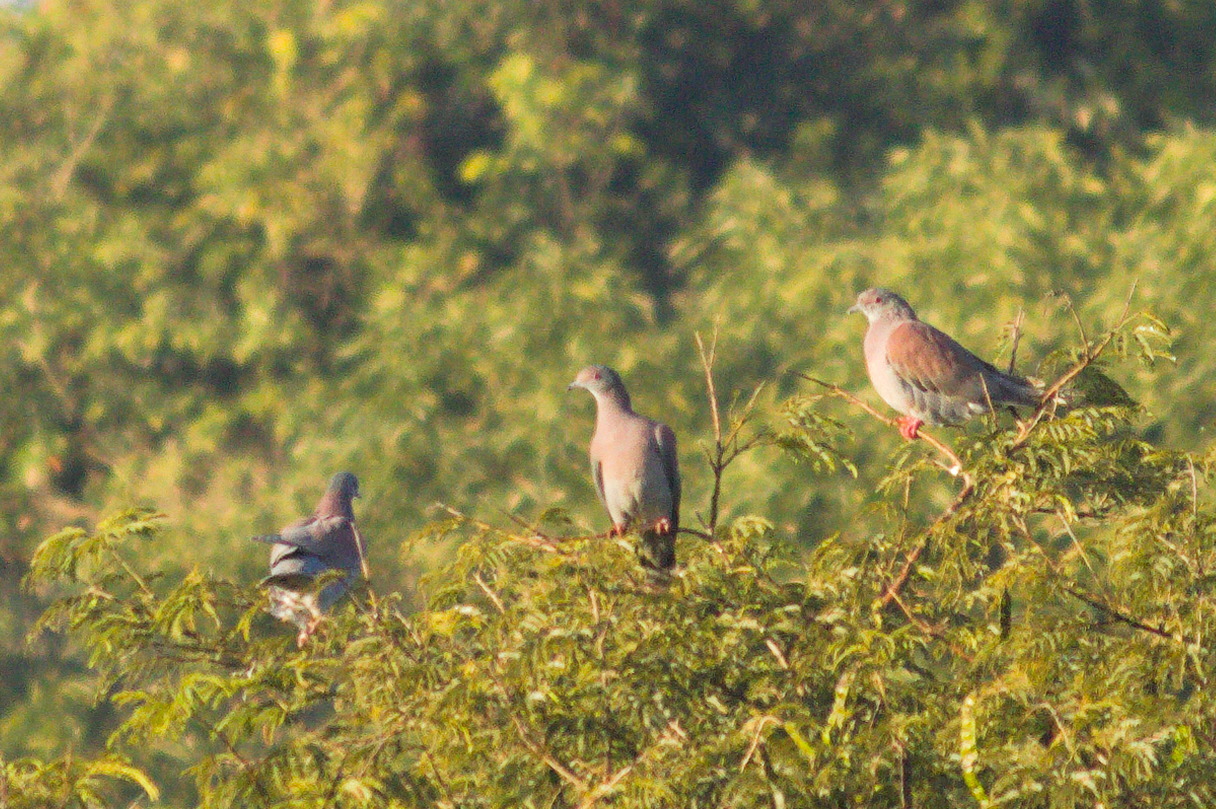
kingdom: Animalia
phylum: Chordata
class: Aves
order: Columbiformes
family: Columbidae
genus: Patagioenas
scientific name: Patagioenas cayennensis
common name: Pale-vented pigeon
